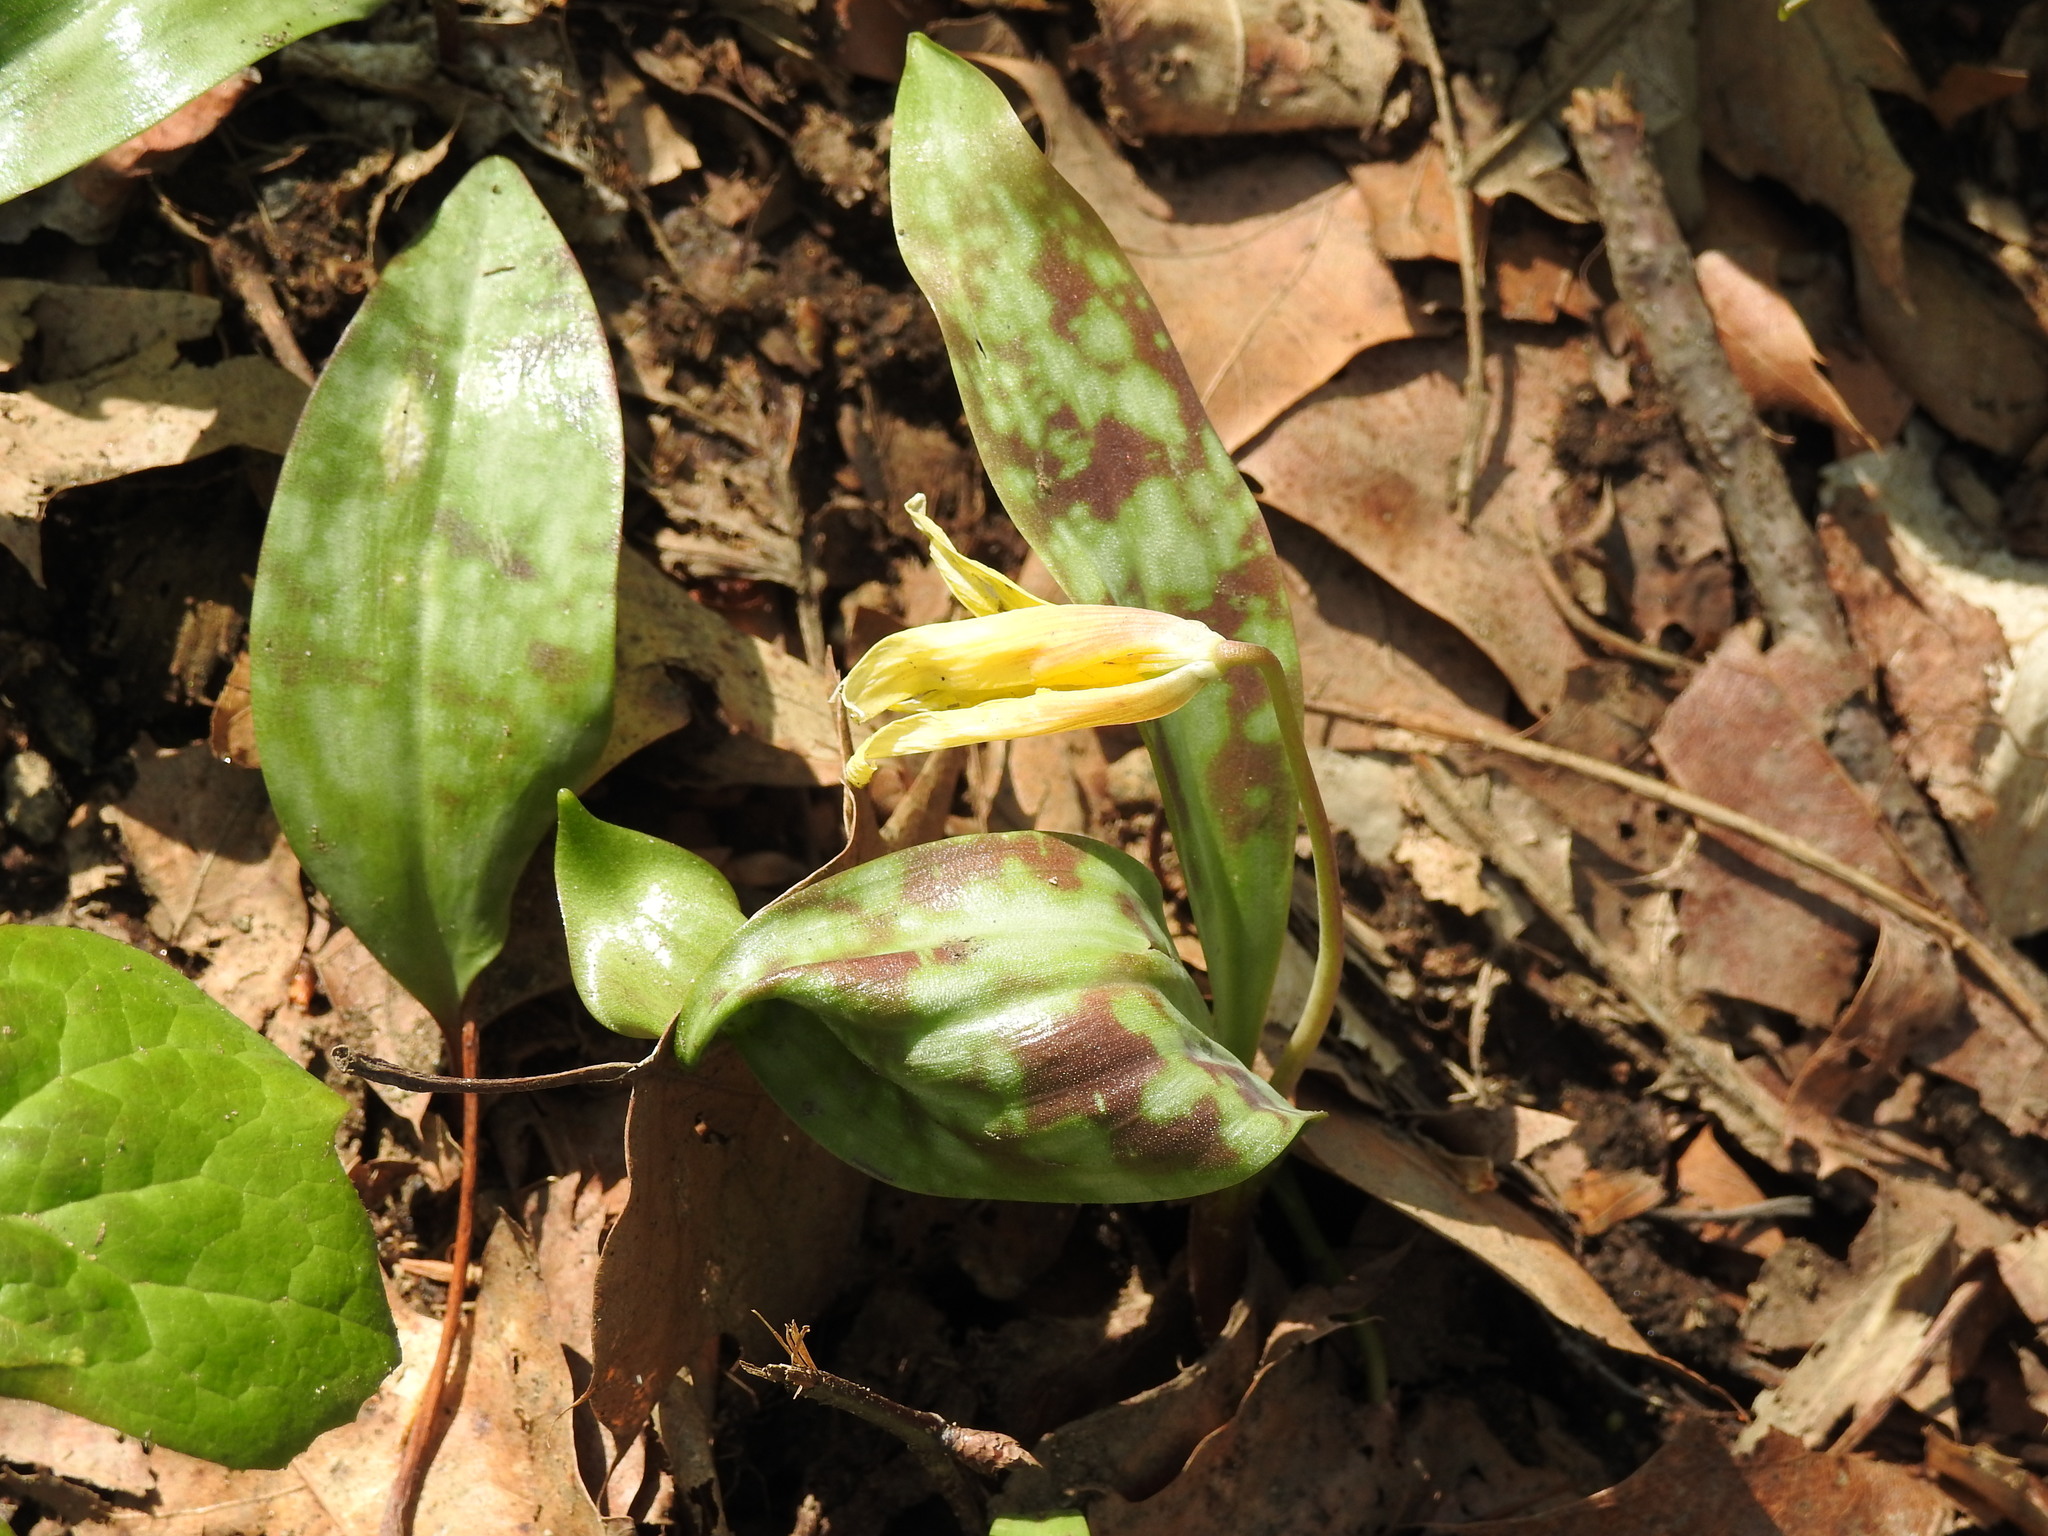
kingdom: Plantae
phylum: Tracheophyta
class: Liliopsida
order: Liliales
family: Liliaceae
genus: Erythronium
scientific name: Erythronium americanum
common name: Yellow adder's-tongue
